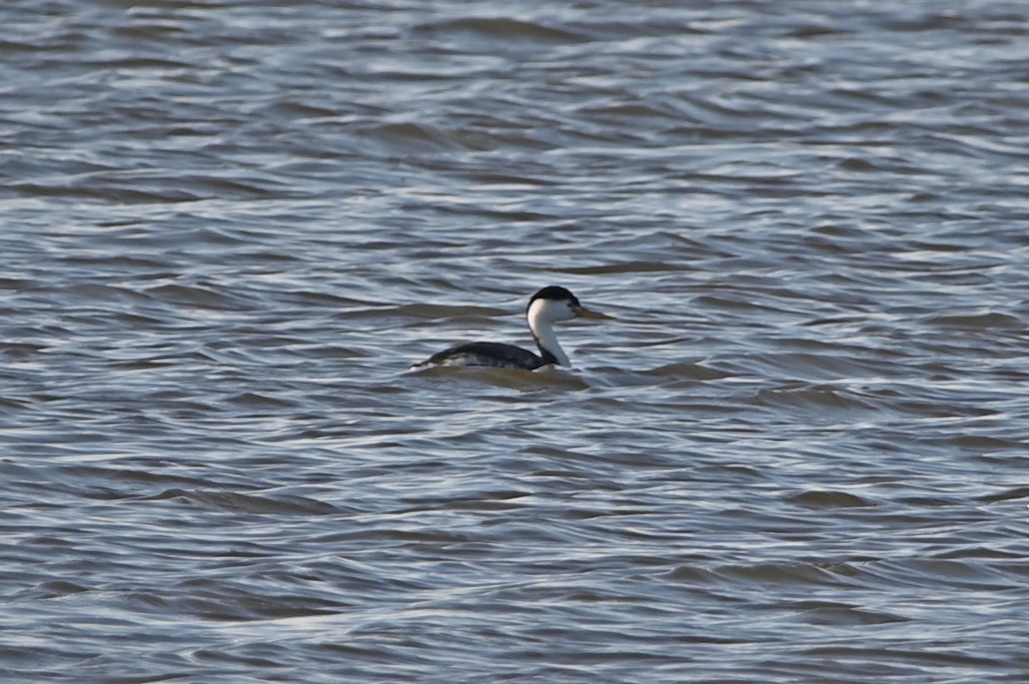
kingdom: Animalia
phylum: Chordata
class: Aves
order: Podicipediformes
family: Podicipedidae
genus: Aechmophorus
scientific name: Aechmophorus clarkii
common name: Clark's grebe
